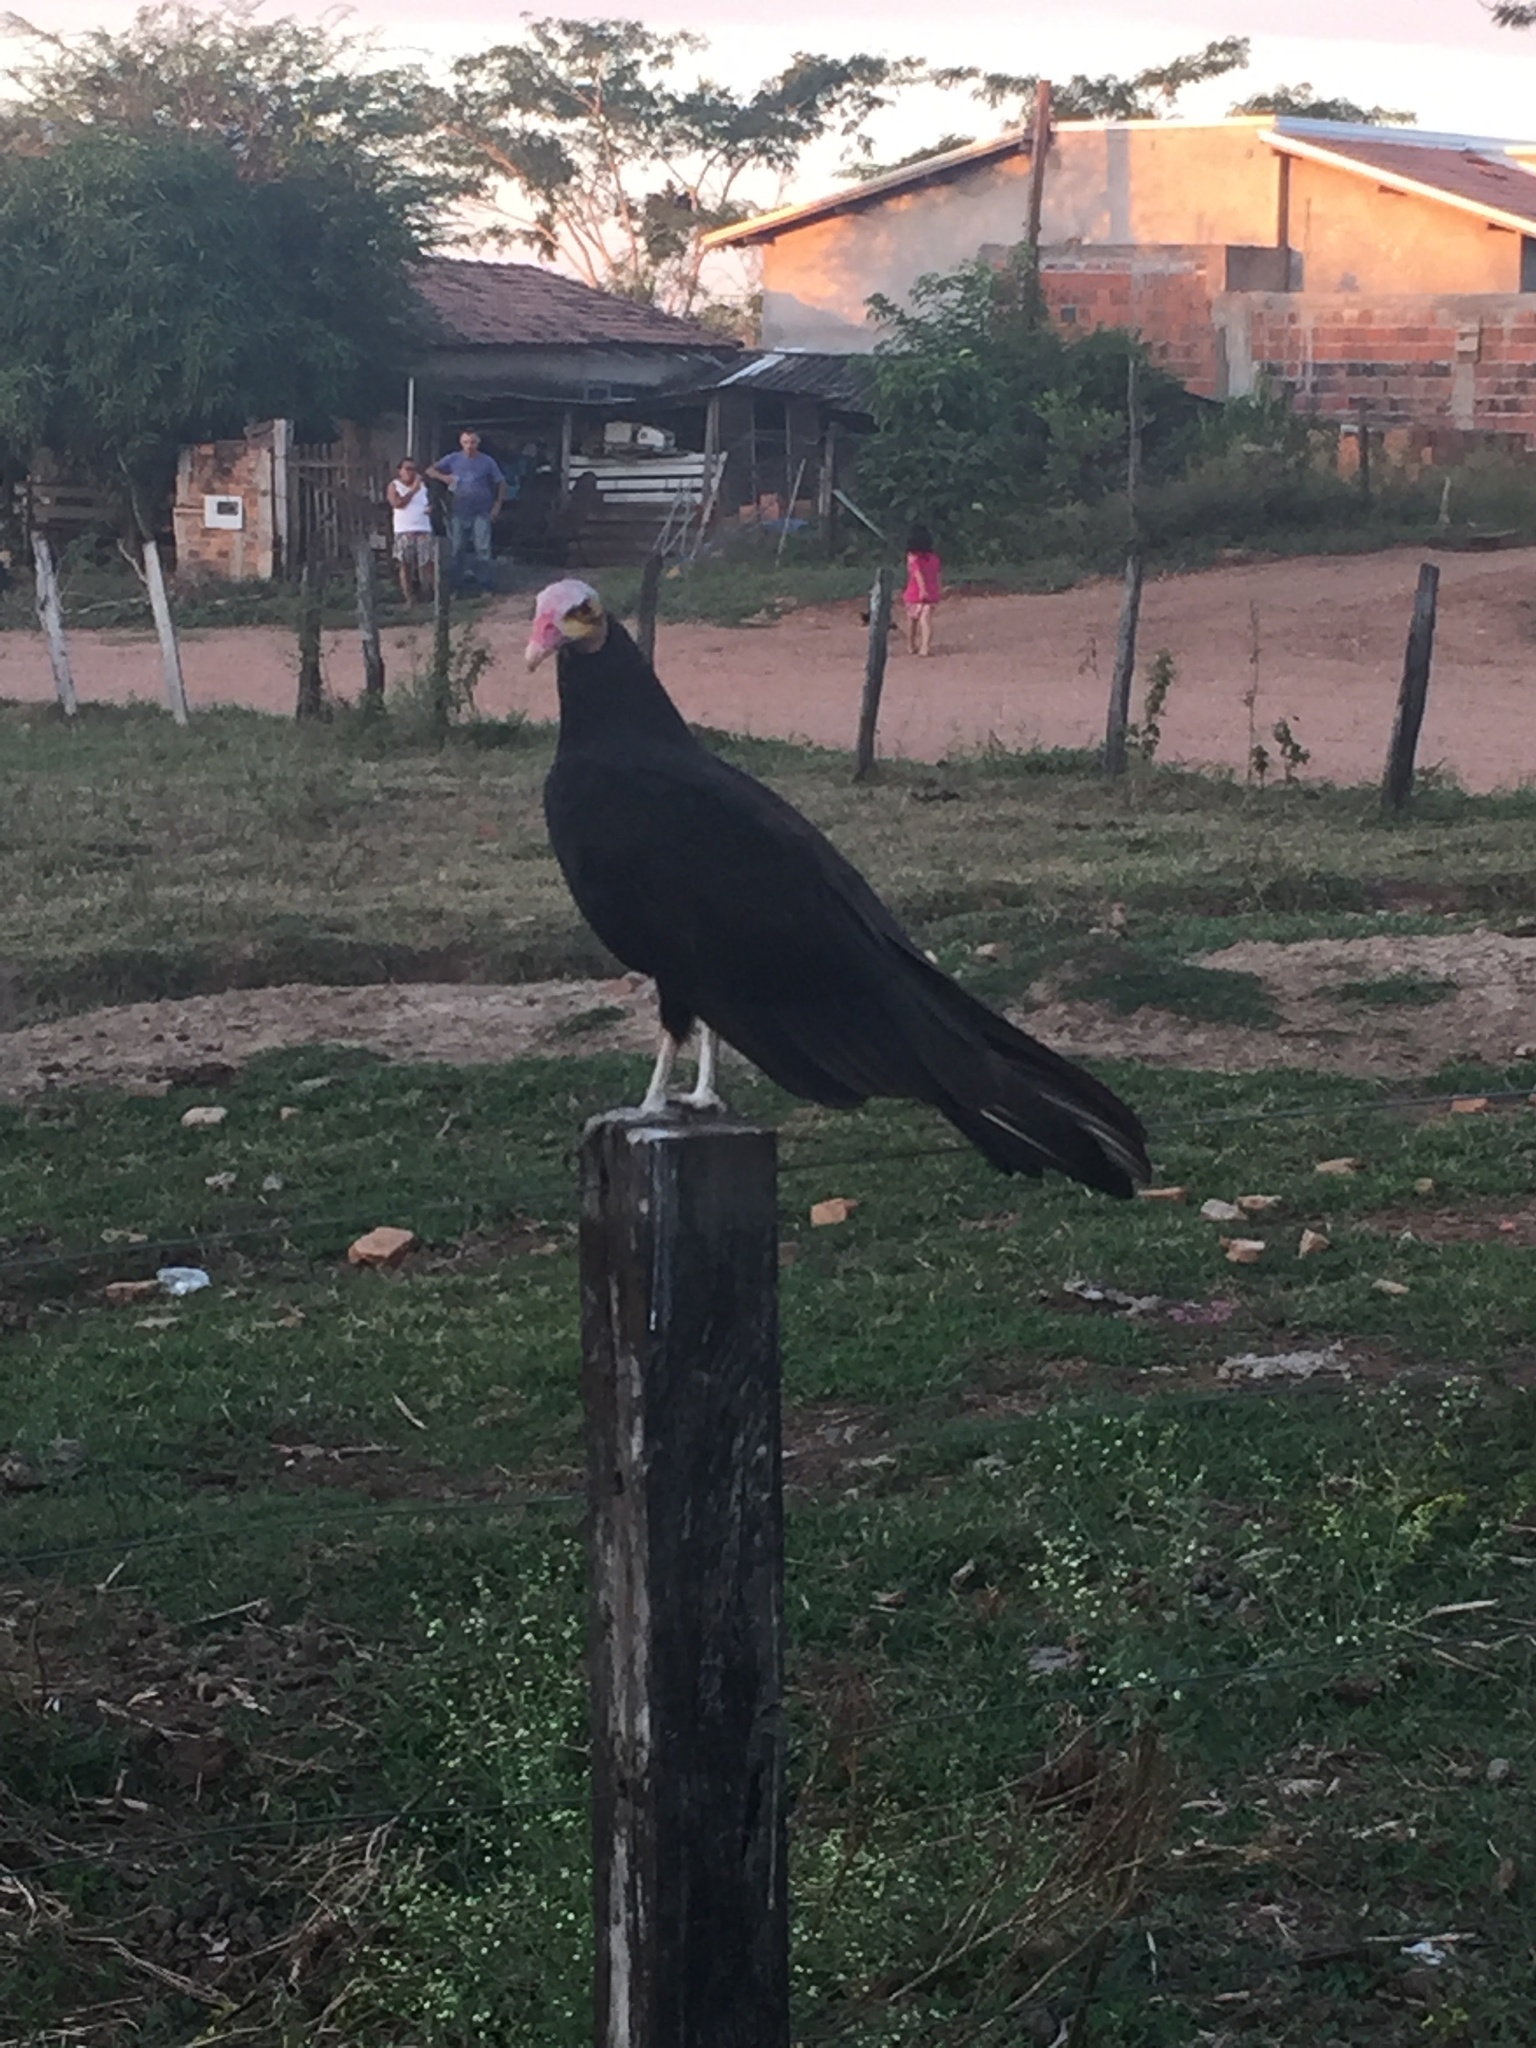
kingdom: Animalia
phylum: Chordata
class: Aves
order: Accipitriformes
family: Cathartidae
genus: Cathartes
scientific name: Cathartes burrovianus
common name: Lesser yellow-headed vulture
